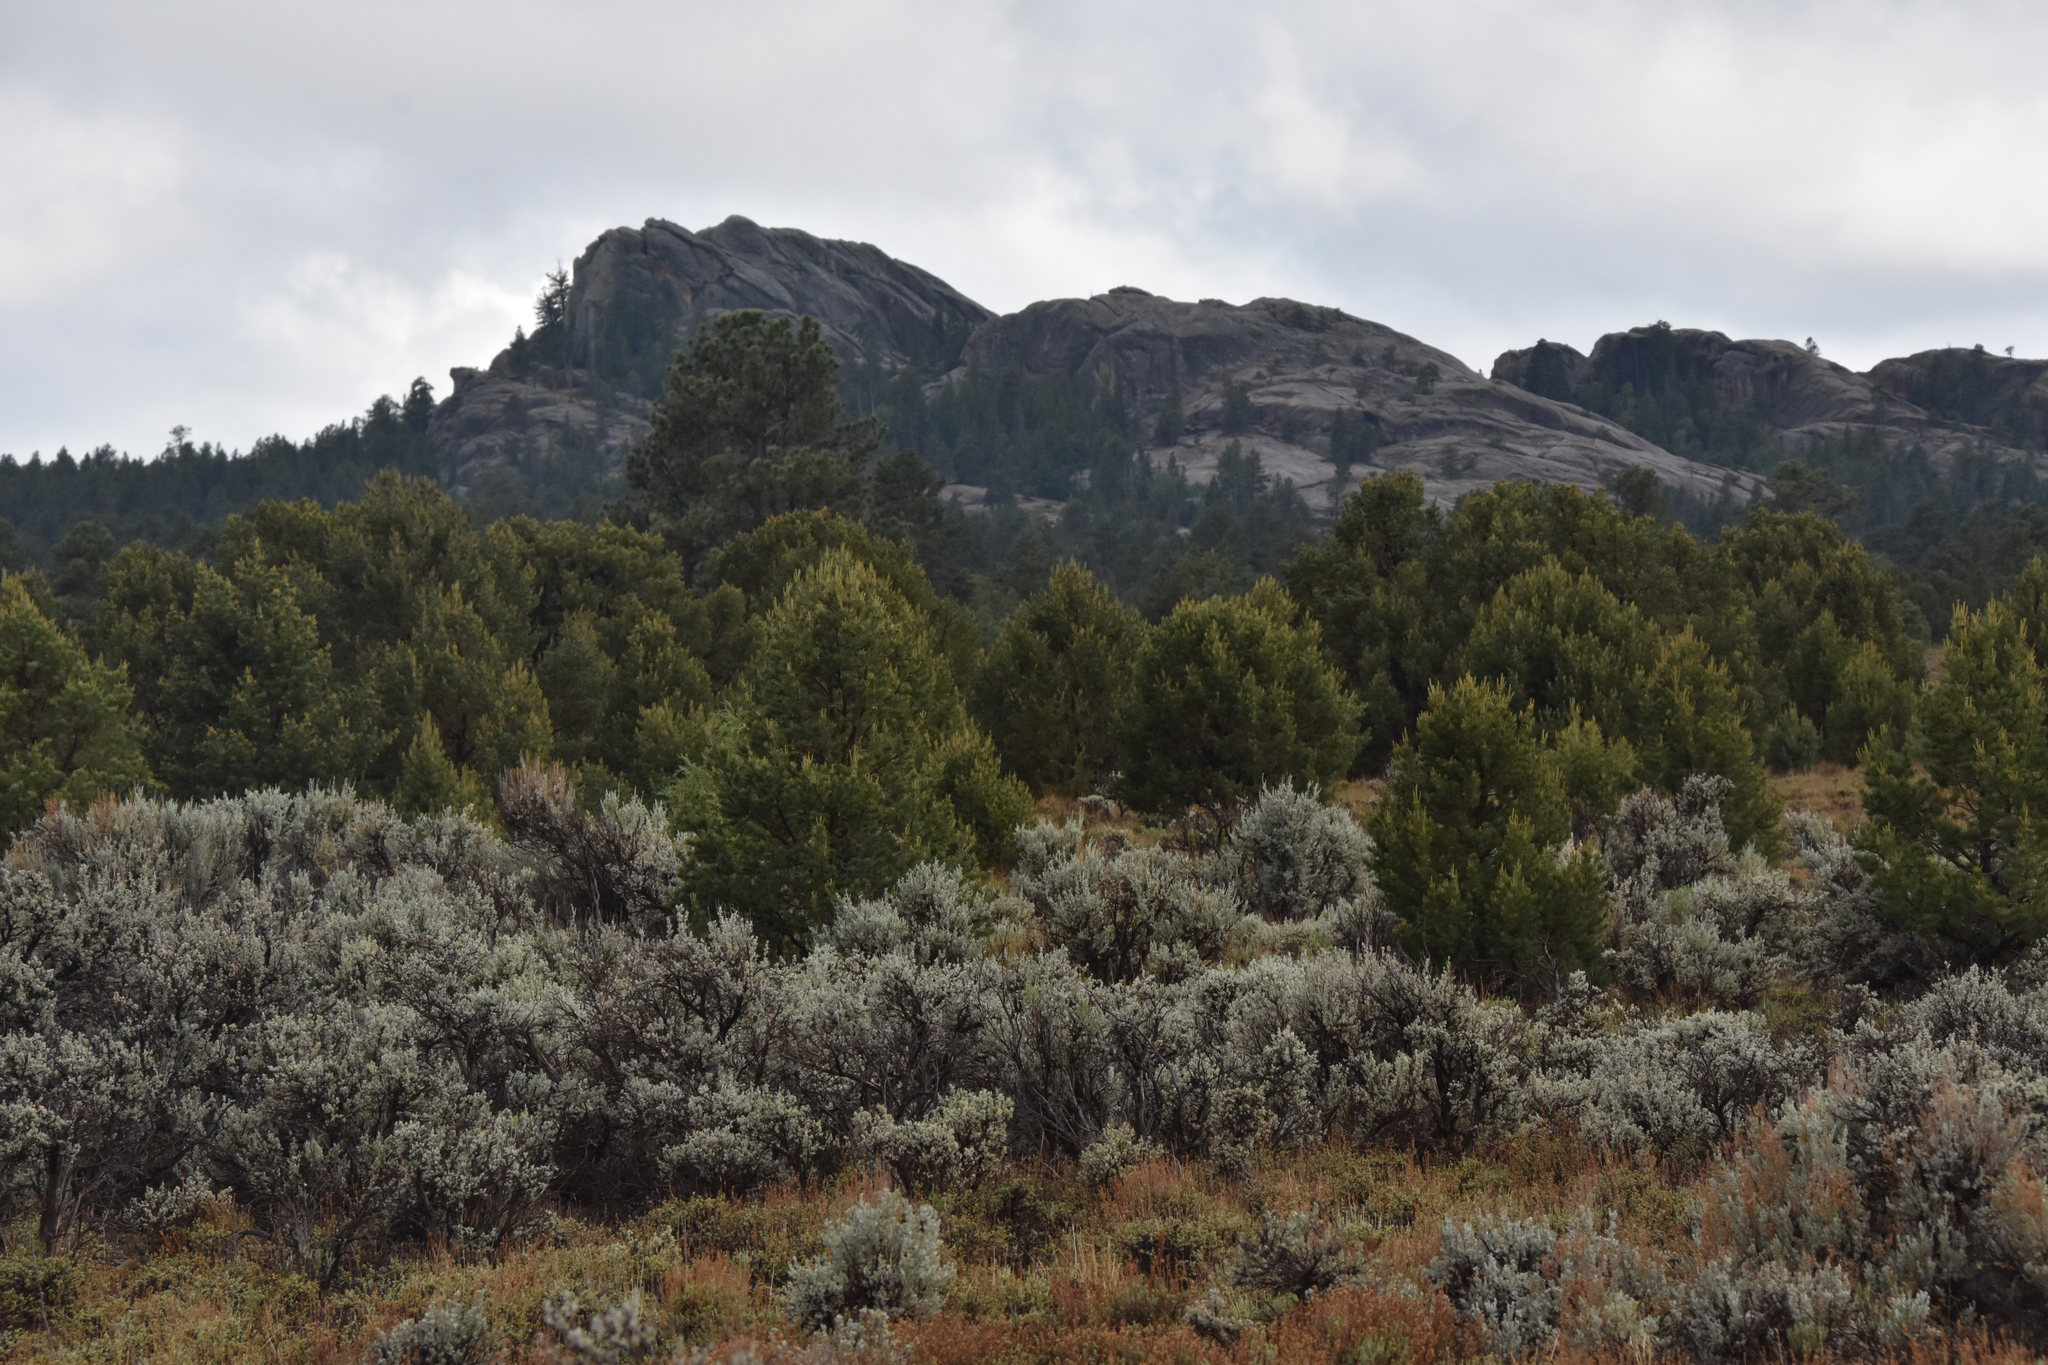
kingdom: Plantae
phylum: Tracheophyta
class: Magnoliopsida
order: Asterales
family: Asteraceae
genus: Artemisia
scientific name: Artemisia tridentata
